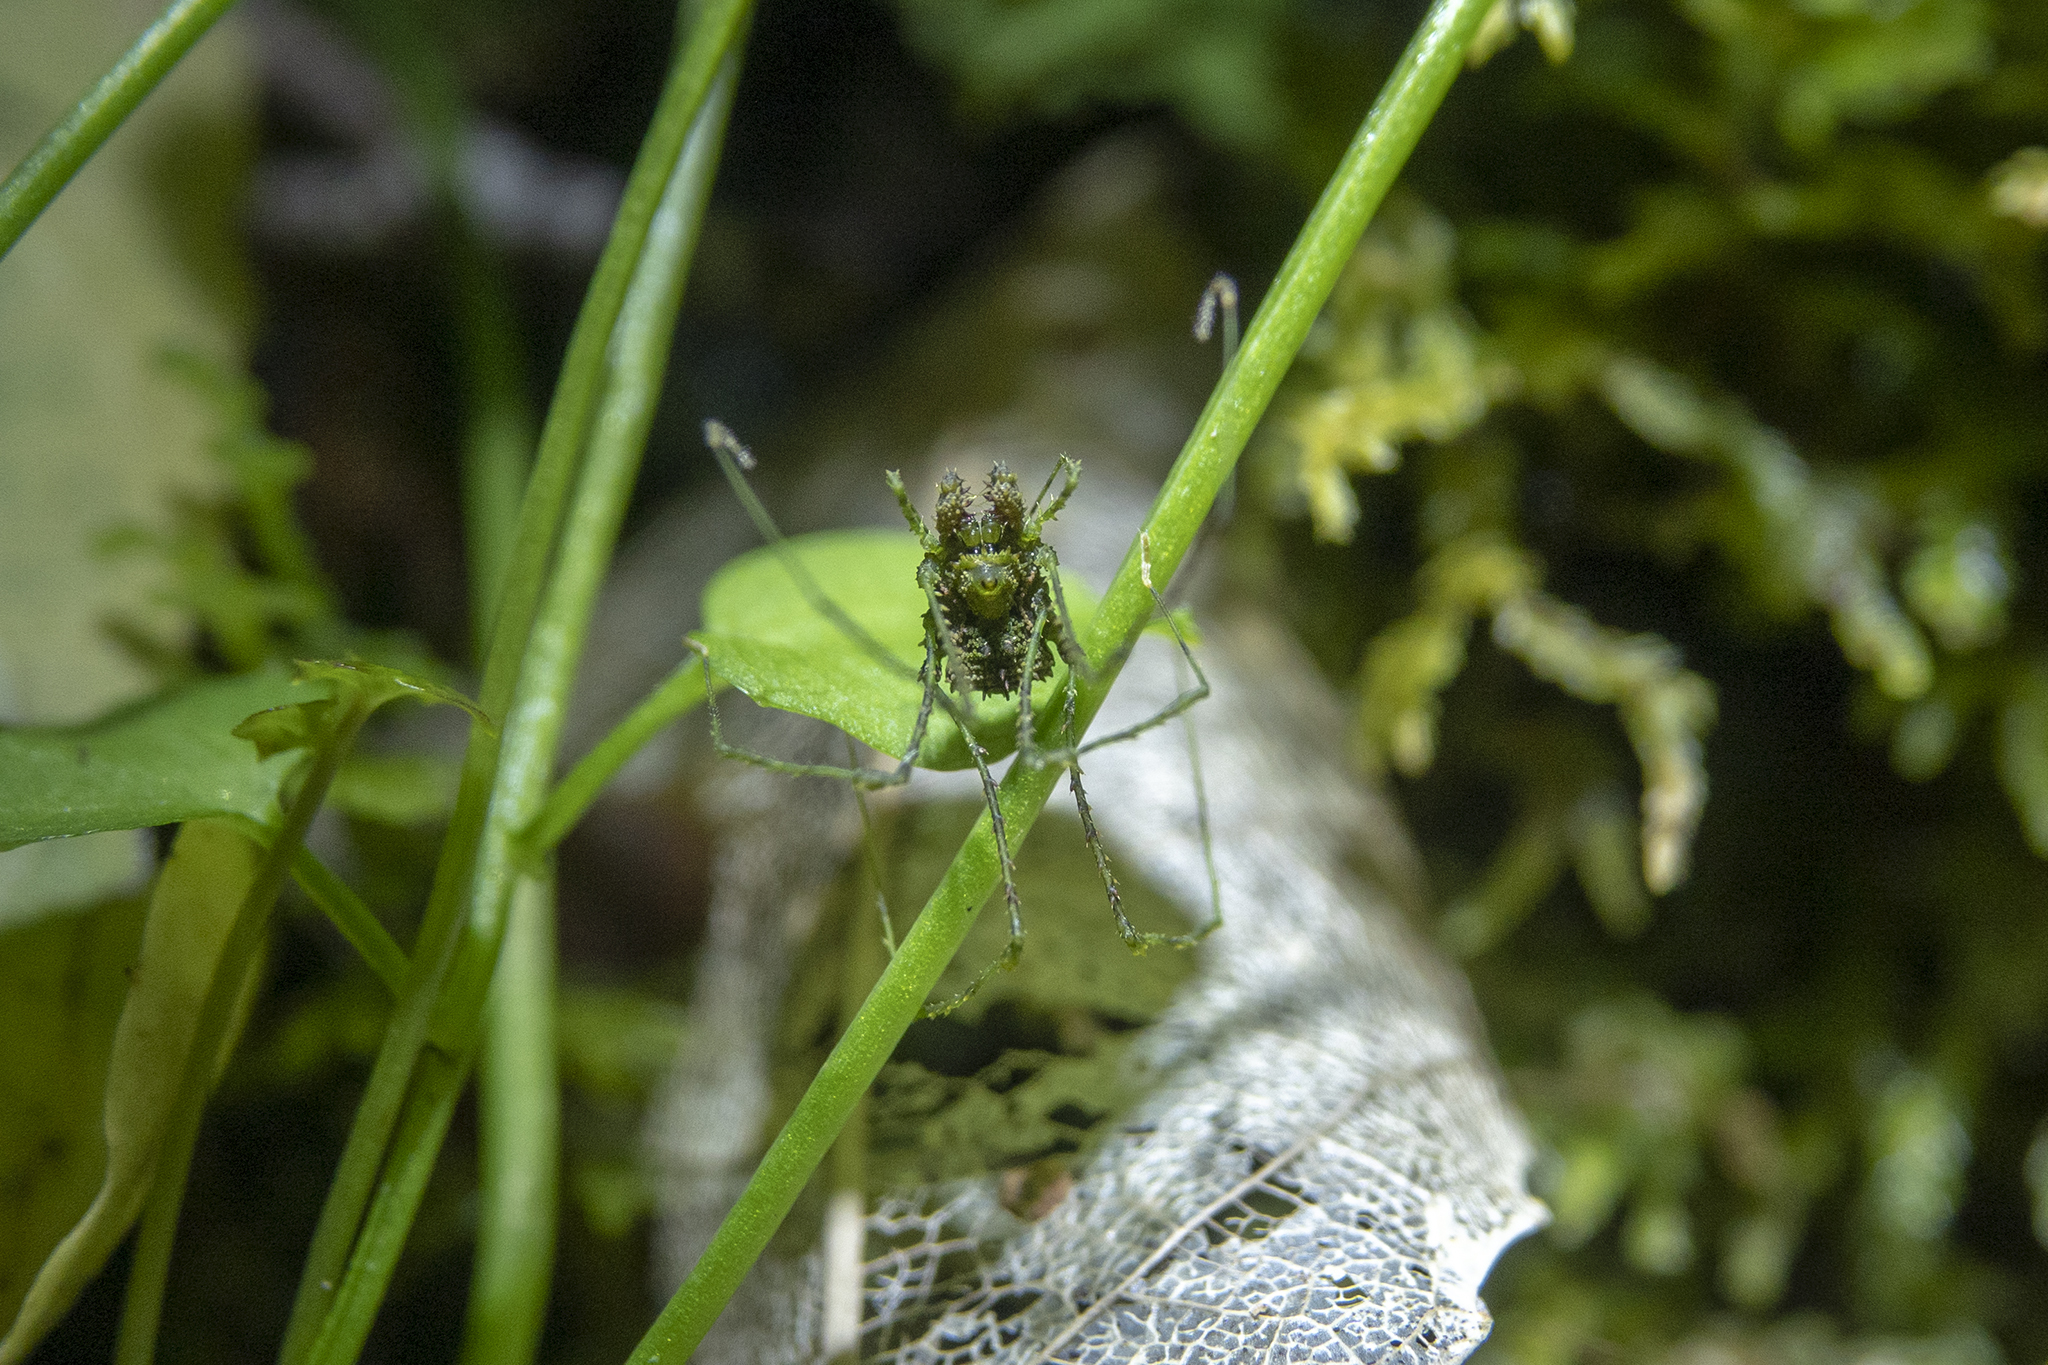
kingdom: Animalia
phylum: Arthropoda
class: Arachnida
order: Opiliones
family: Triaenonychidae
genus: Algidia
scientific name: Algidia viridata
